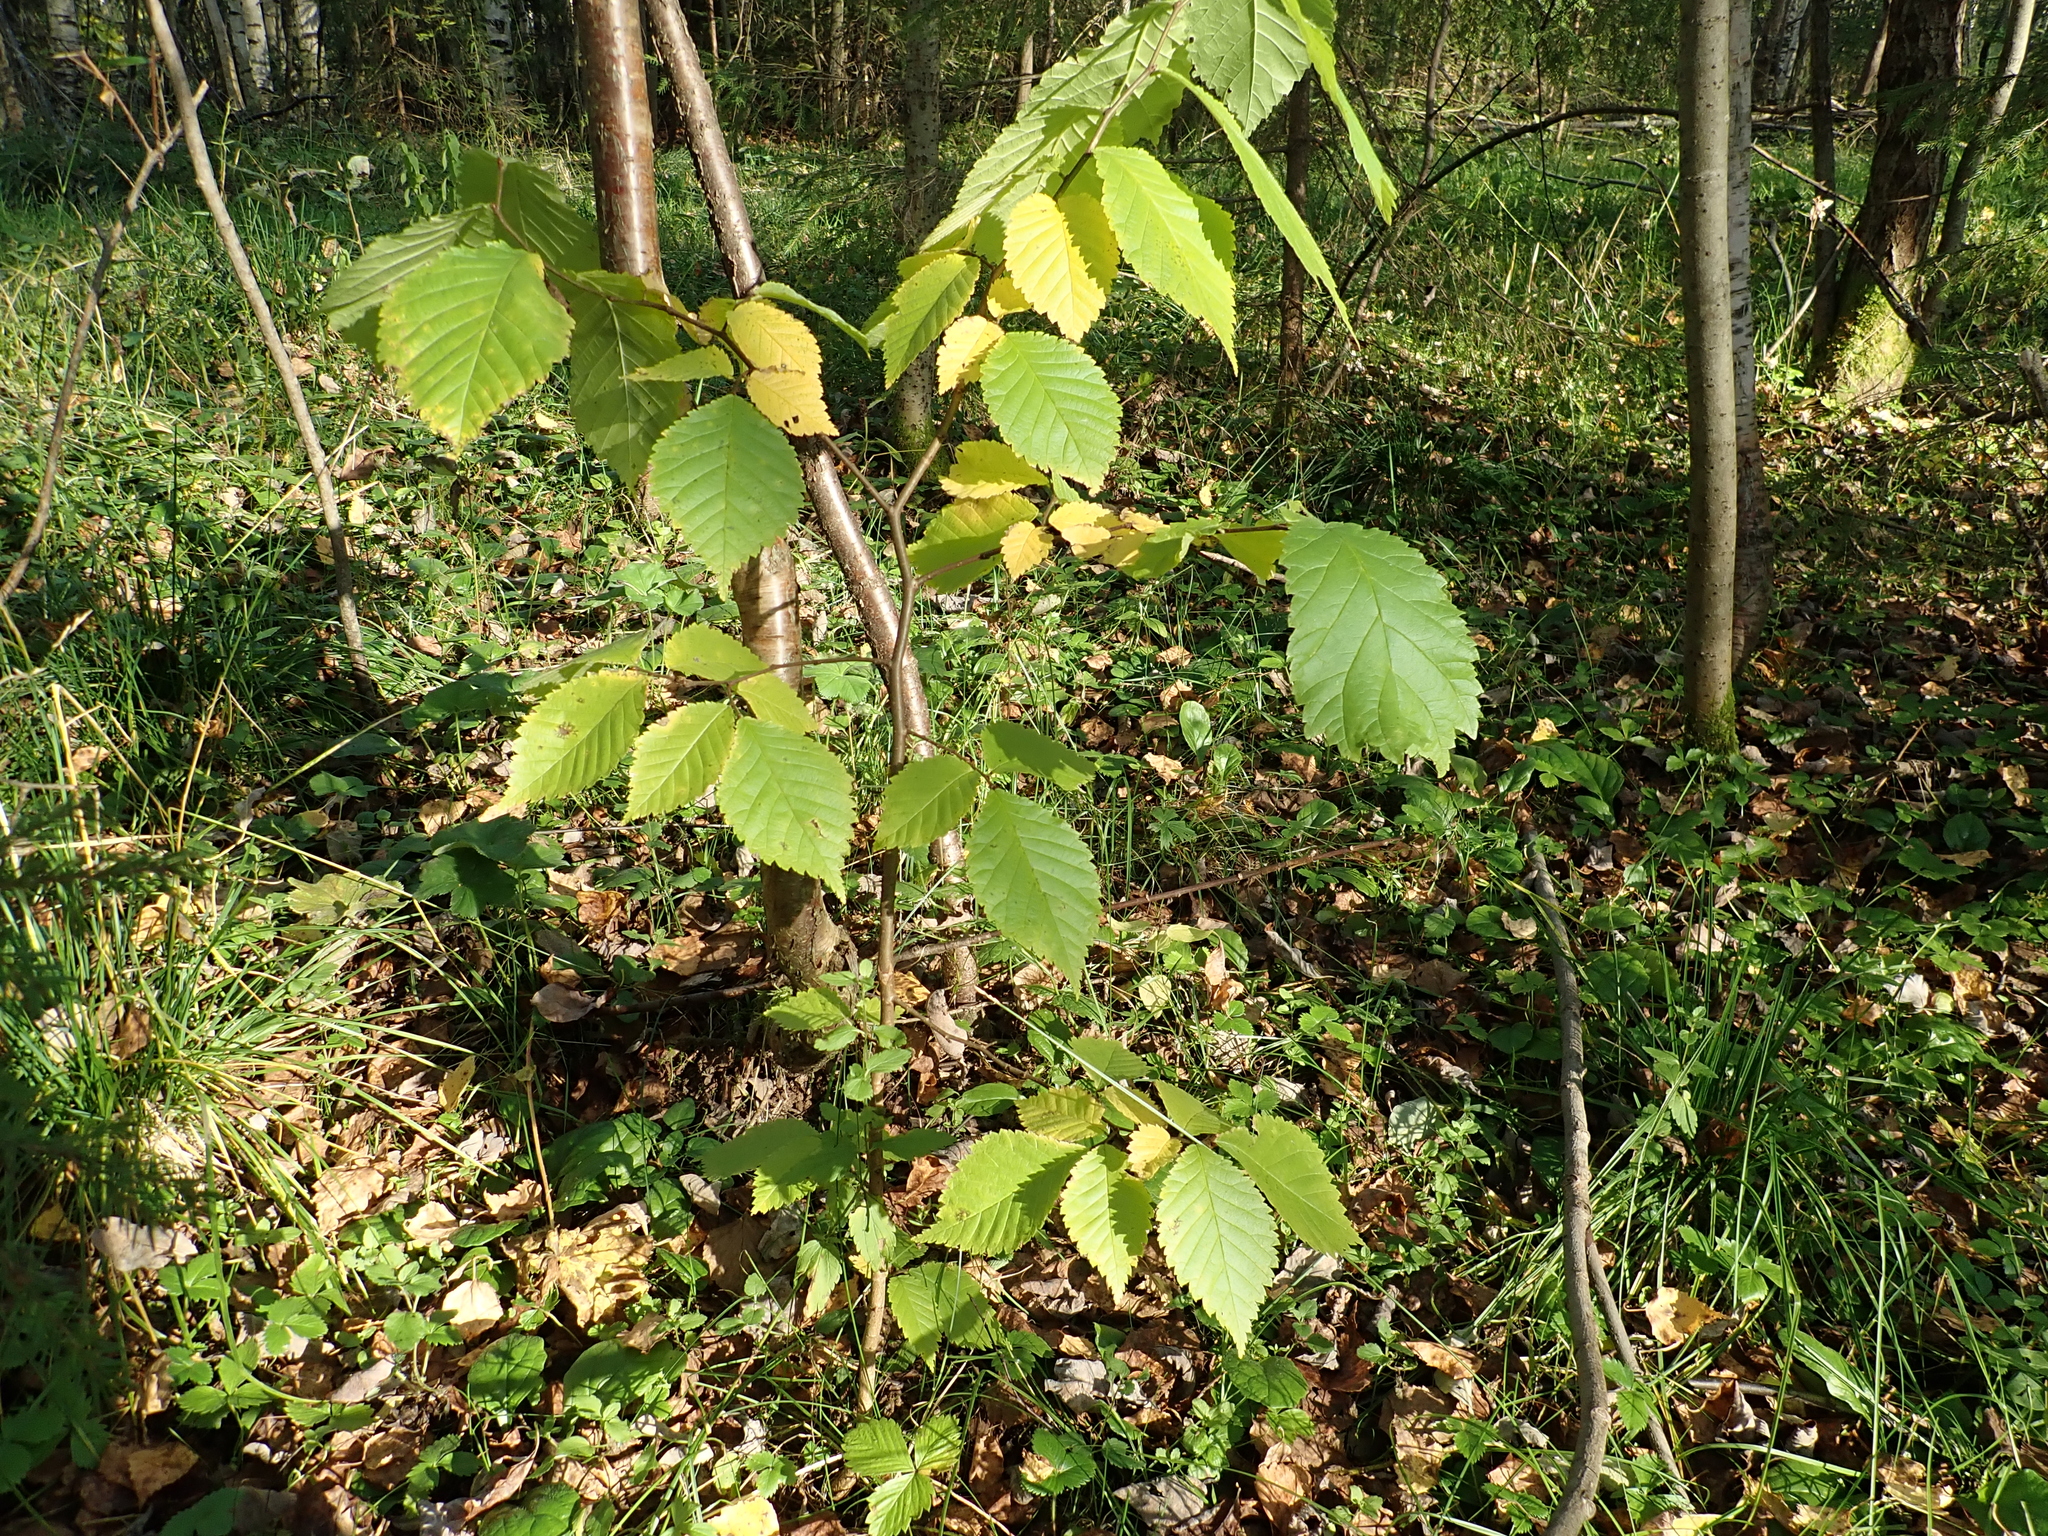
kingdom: Plantae
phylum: Tracheophyta
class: Magnoliopsida
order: Rosales
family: Ulmaceae
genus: Ulmus
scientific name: Ulmus glabra
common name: Wych elm
